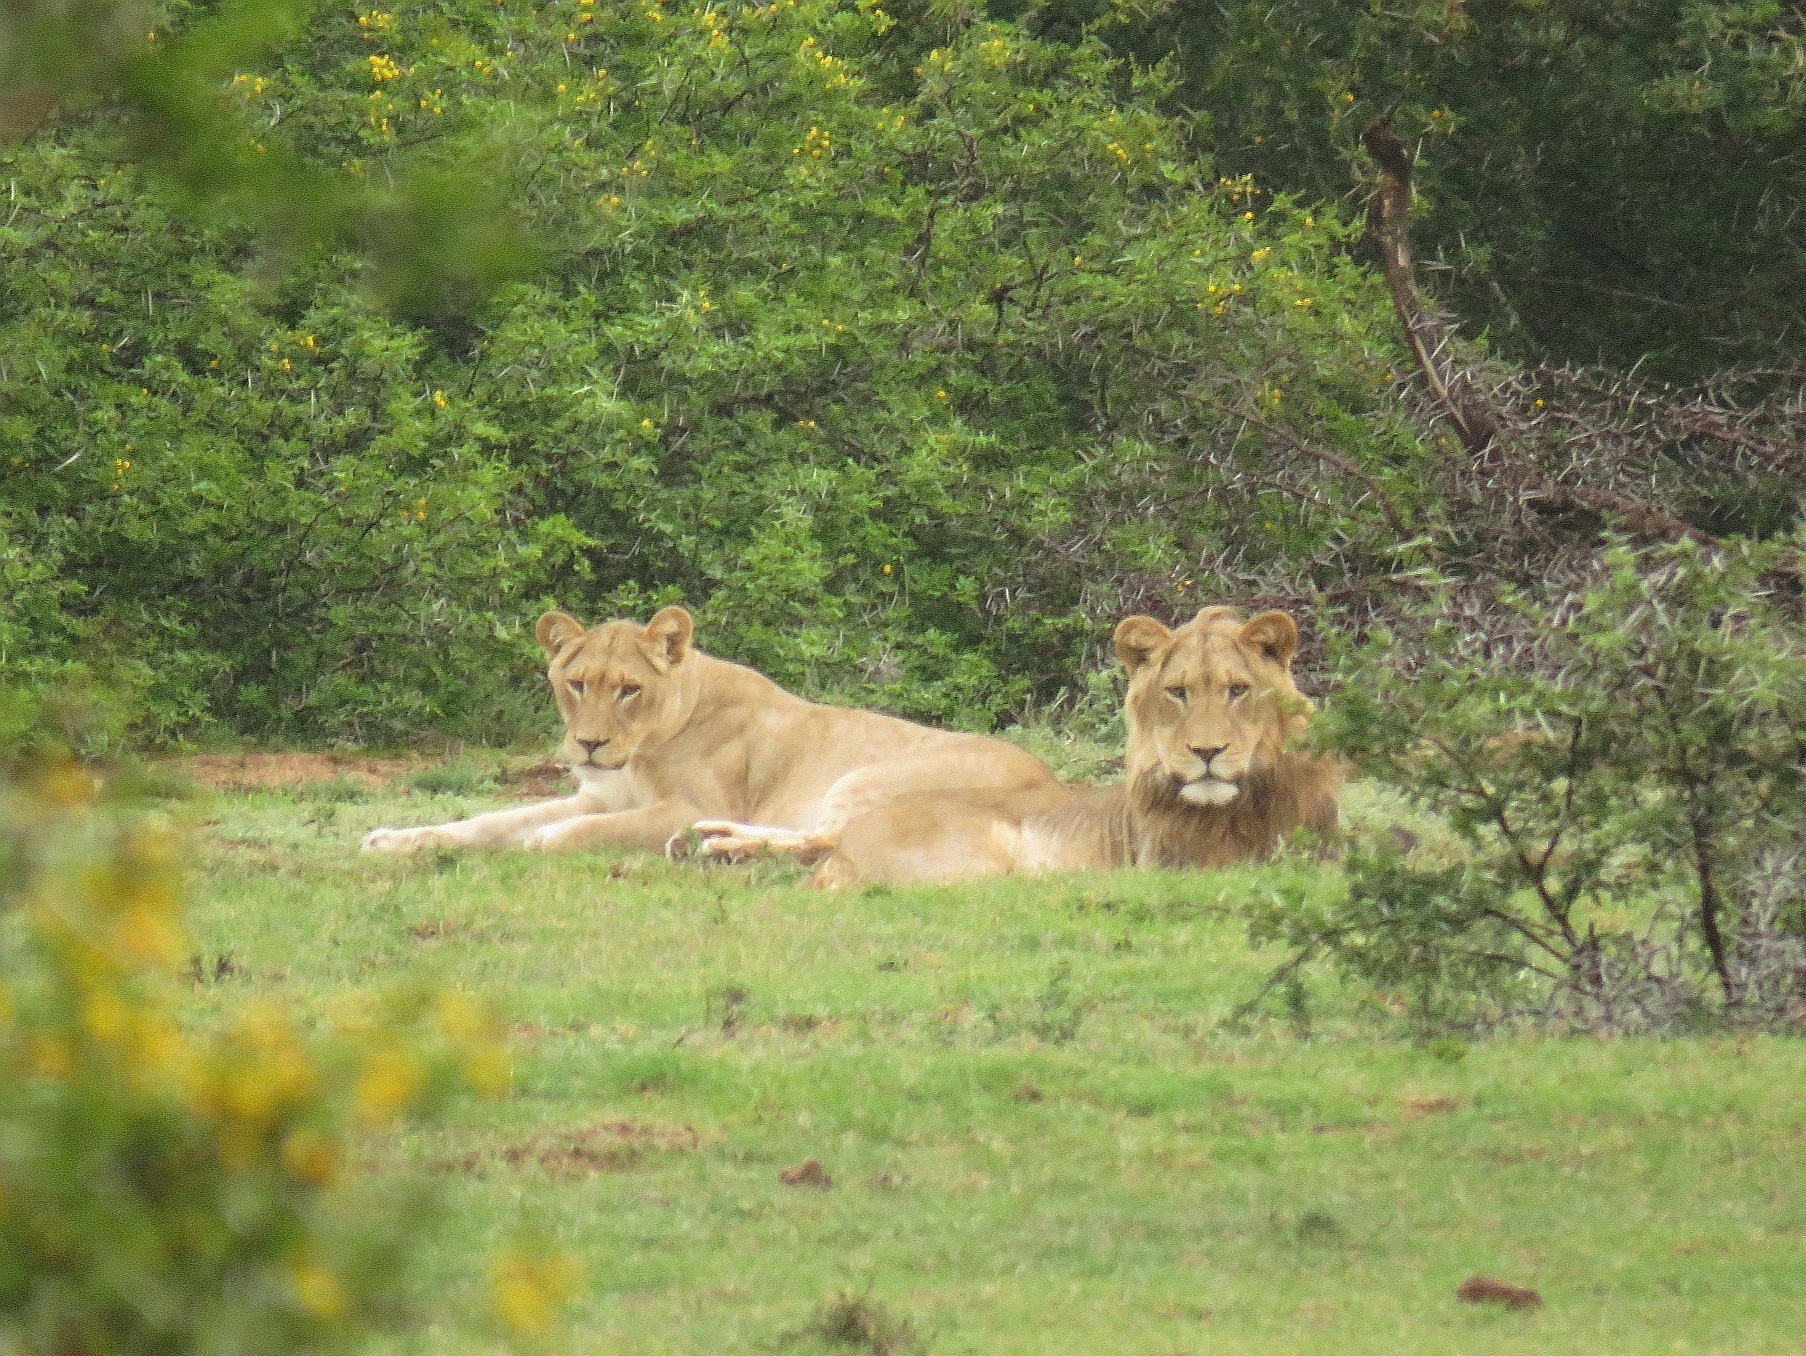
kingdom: Animalia
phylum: Chordata
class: Mammalia
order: Carnivora
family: Felidae
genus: Panthera
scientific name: Panthera leo
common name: Lion
